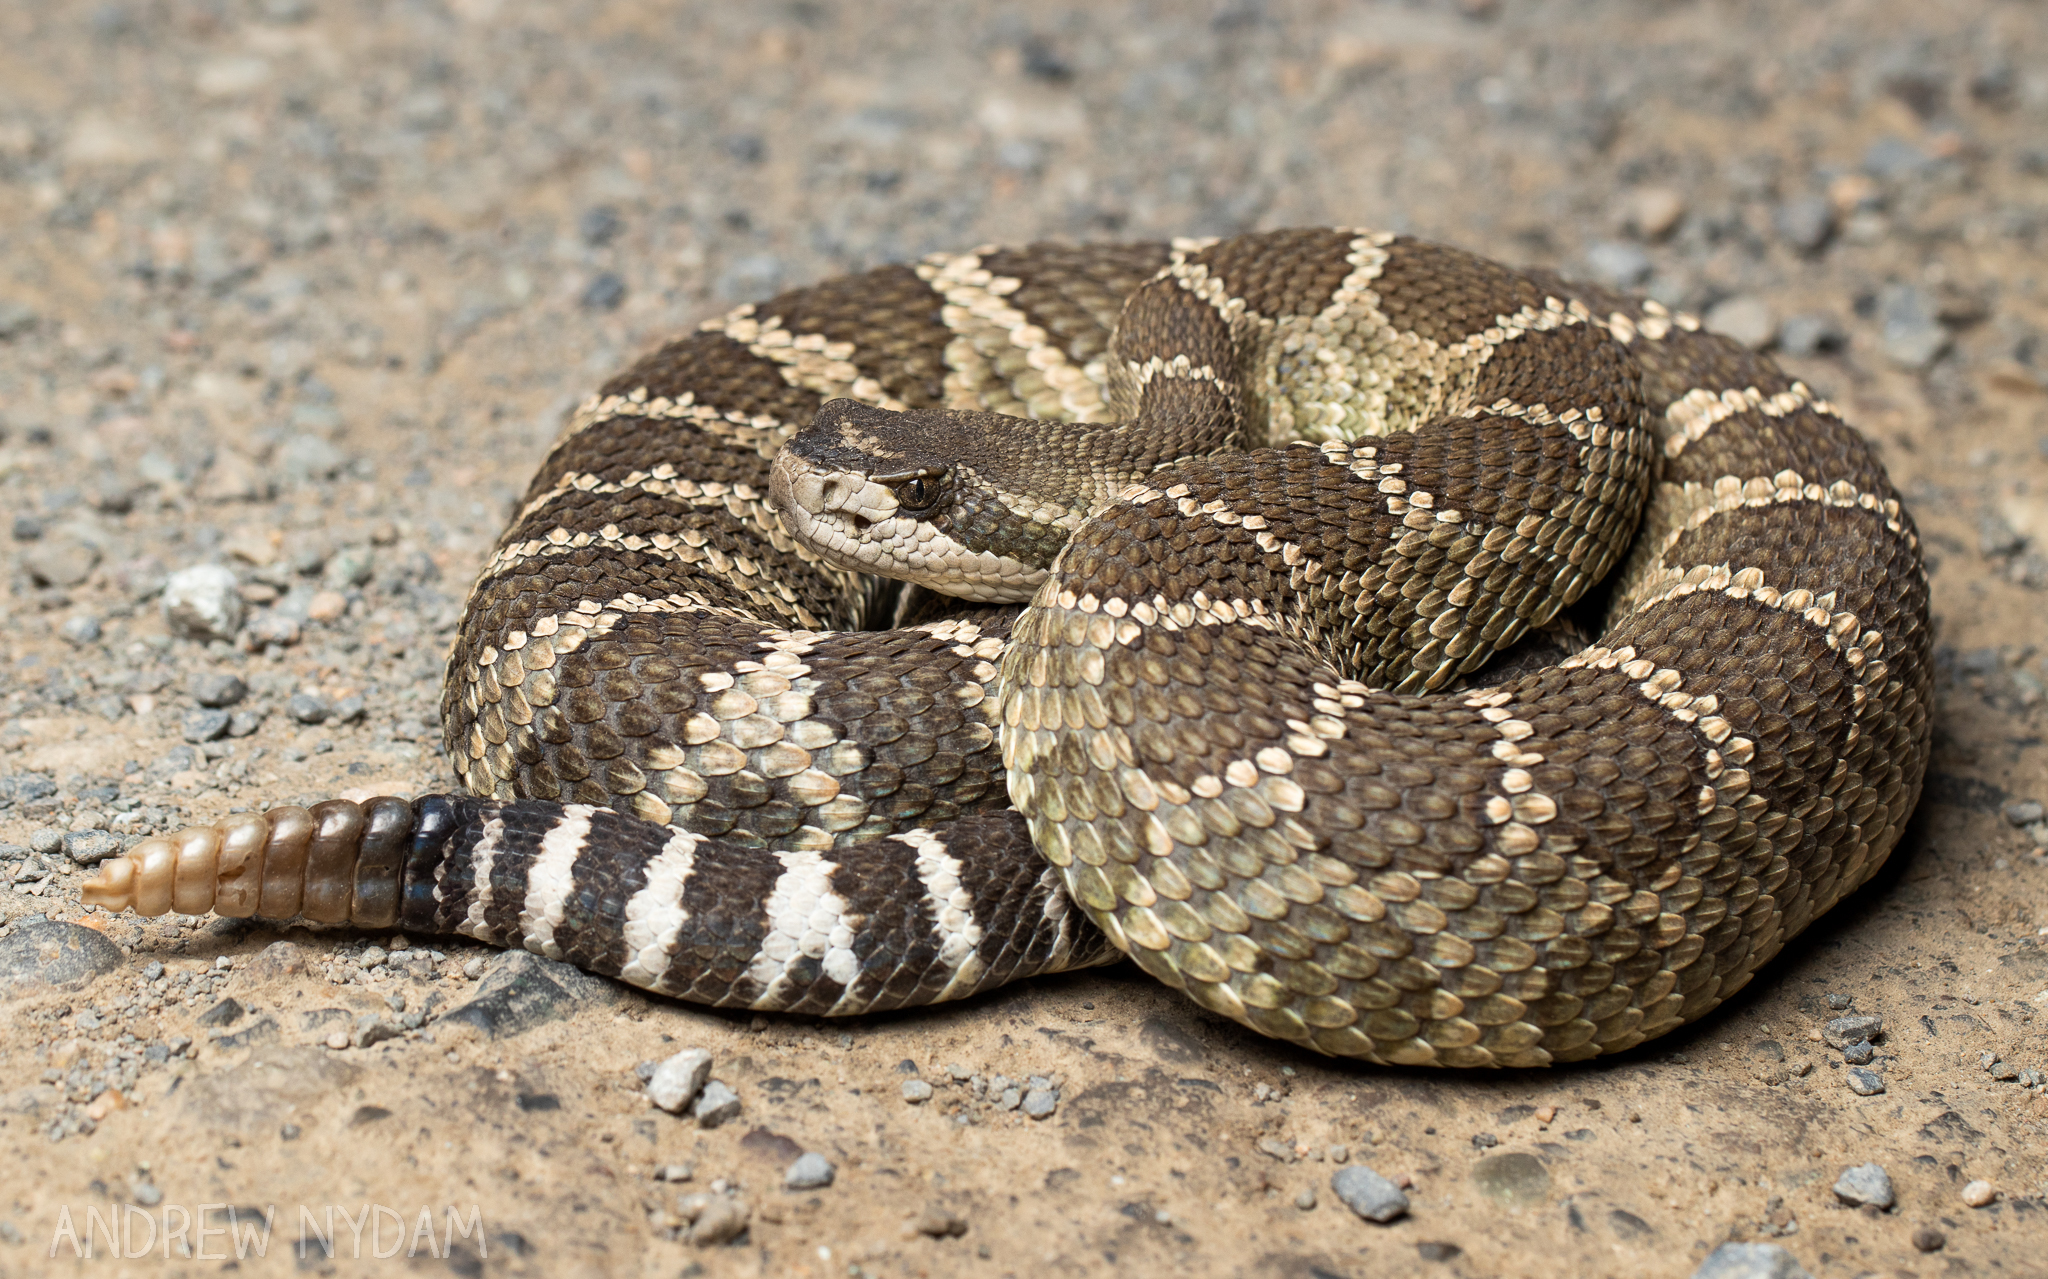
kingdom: Animalia
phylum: Chordata
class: Squamata
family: Viperidae
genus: Crotalus
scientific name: Crotalus oreganus
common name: Abyssus
